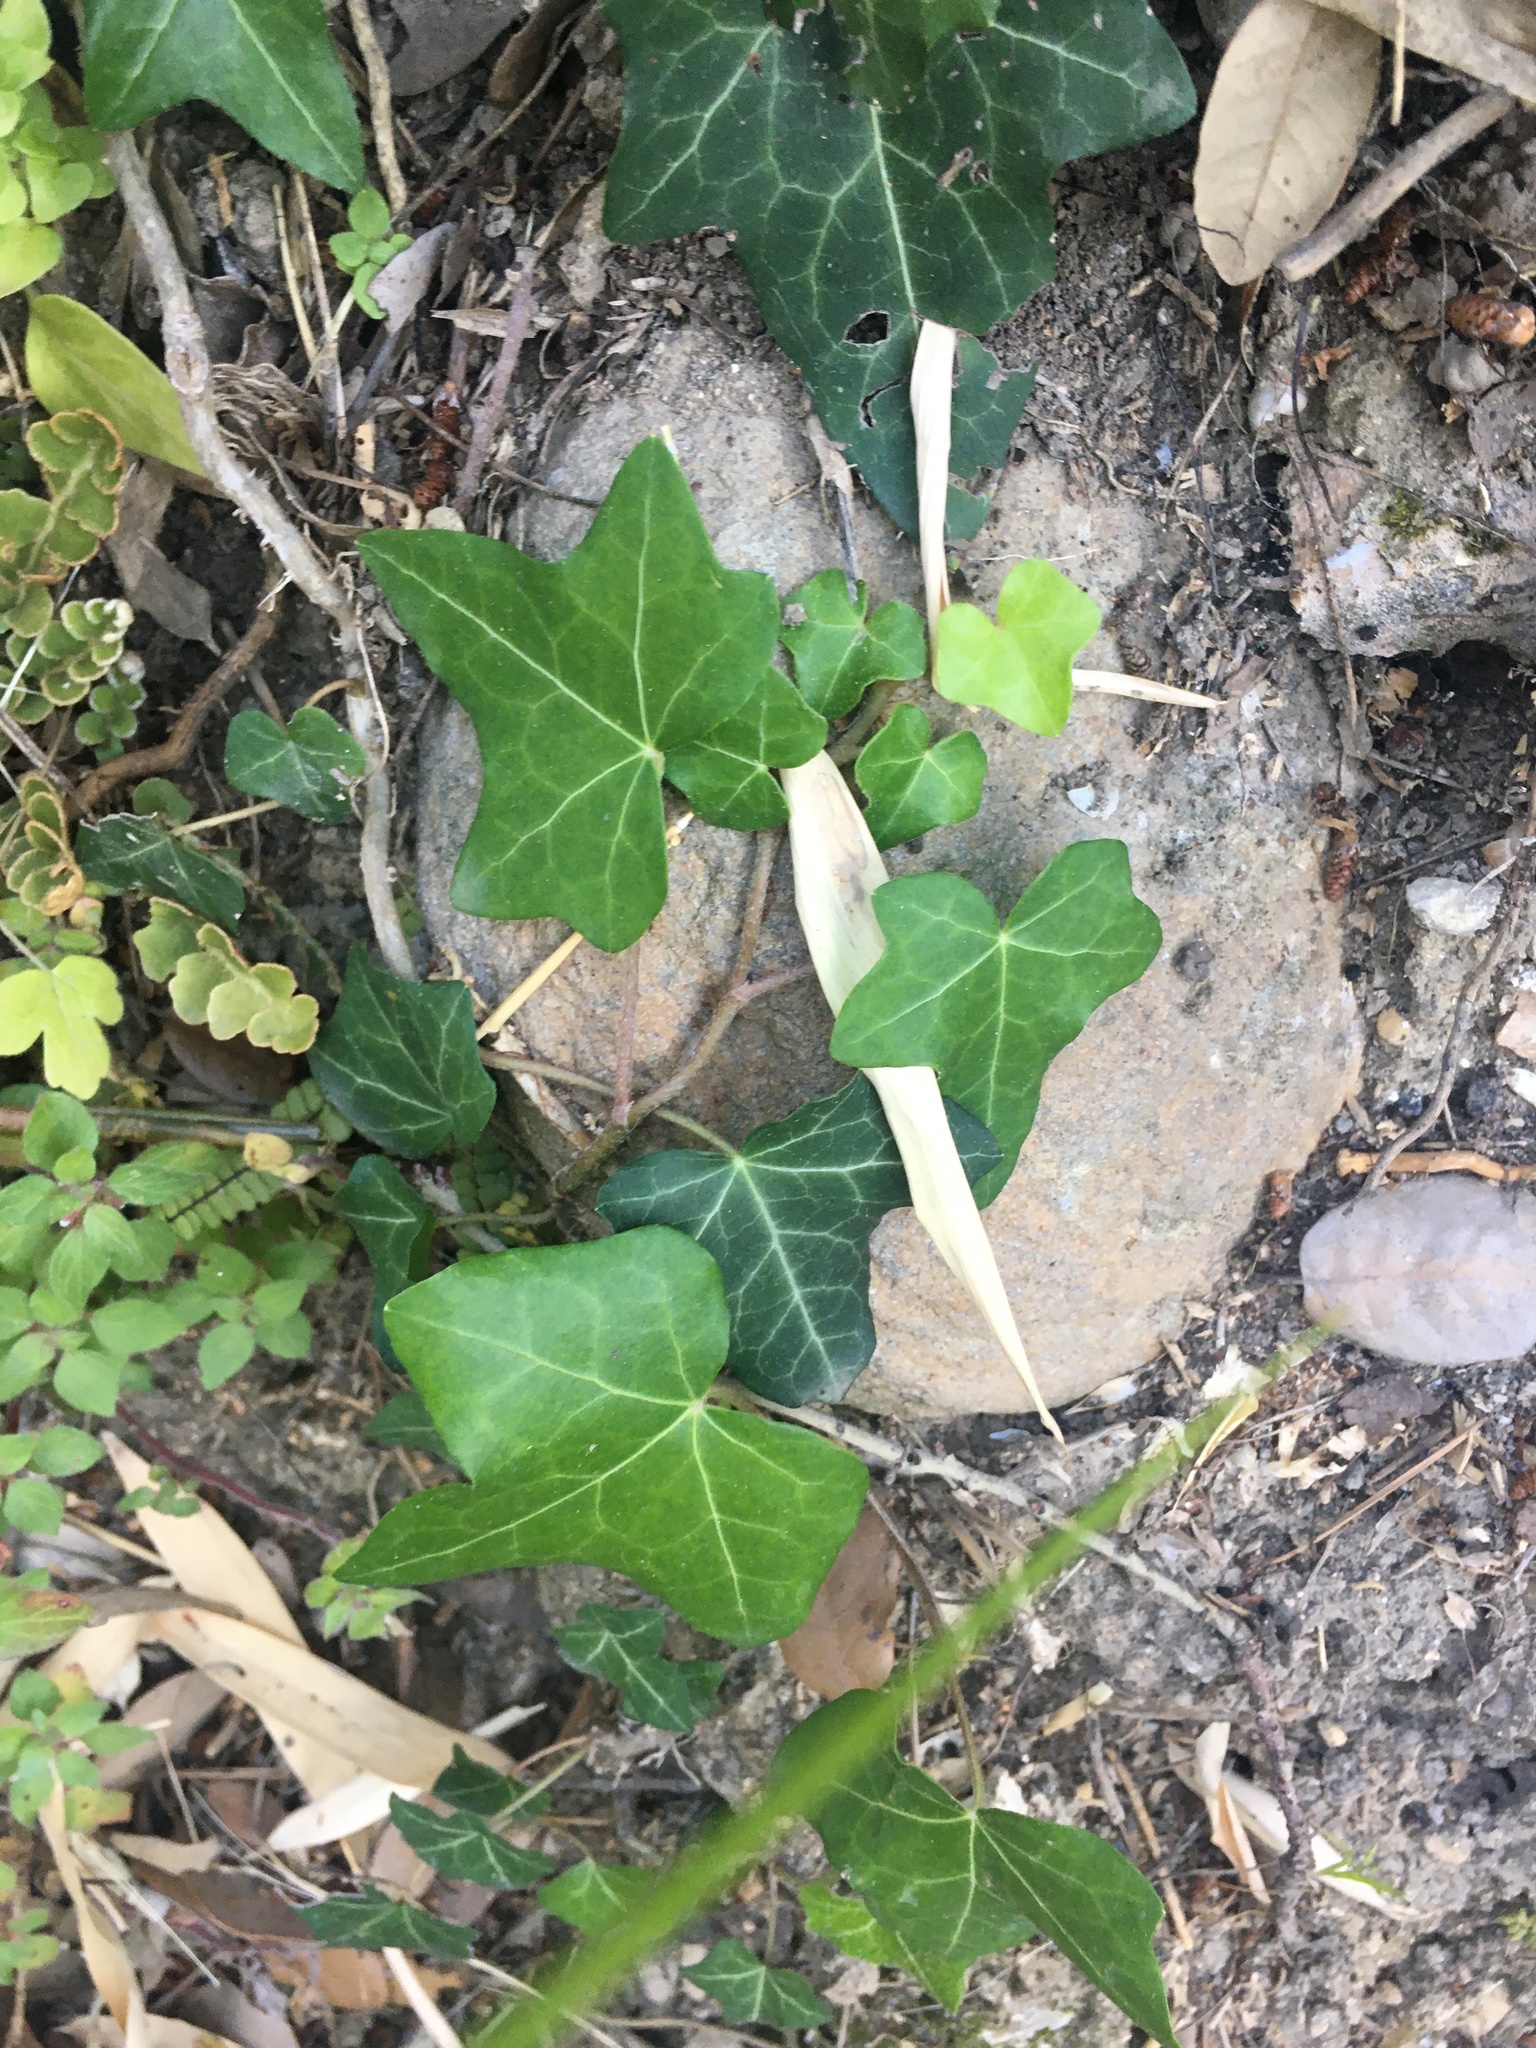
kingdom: Plantae
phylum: Tracheophyta
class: Magnoliopsida
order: Apiales
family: Araliaceae
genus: Hedera
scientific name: Hedera helix
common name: Ivy
